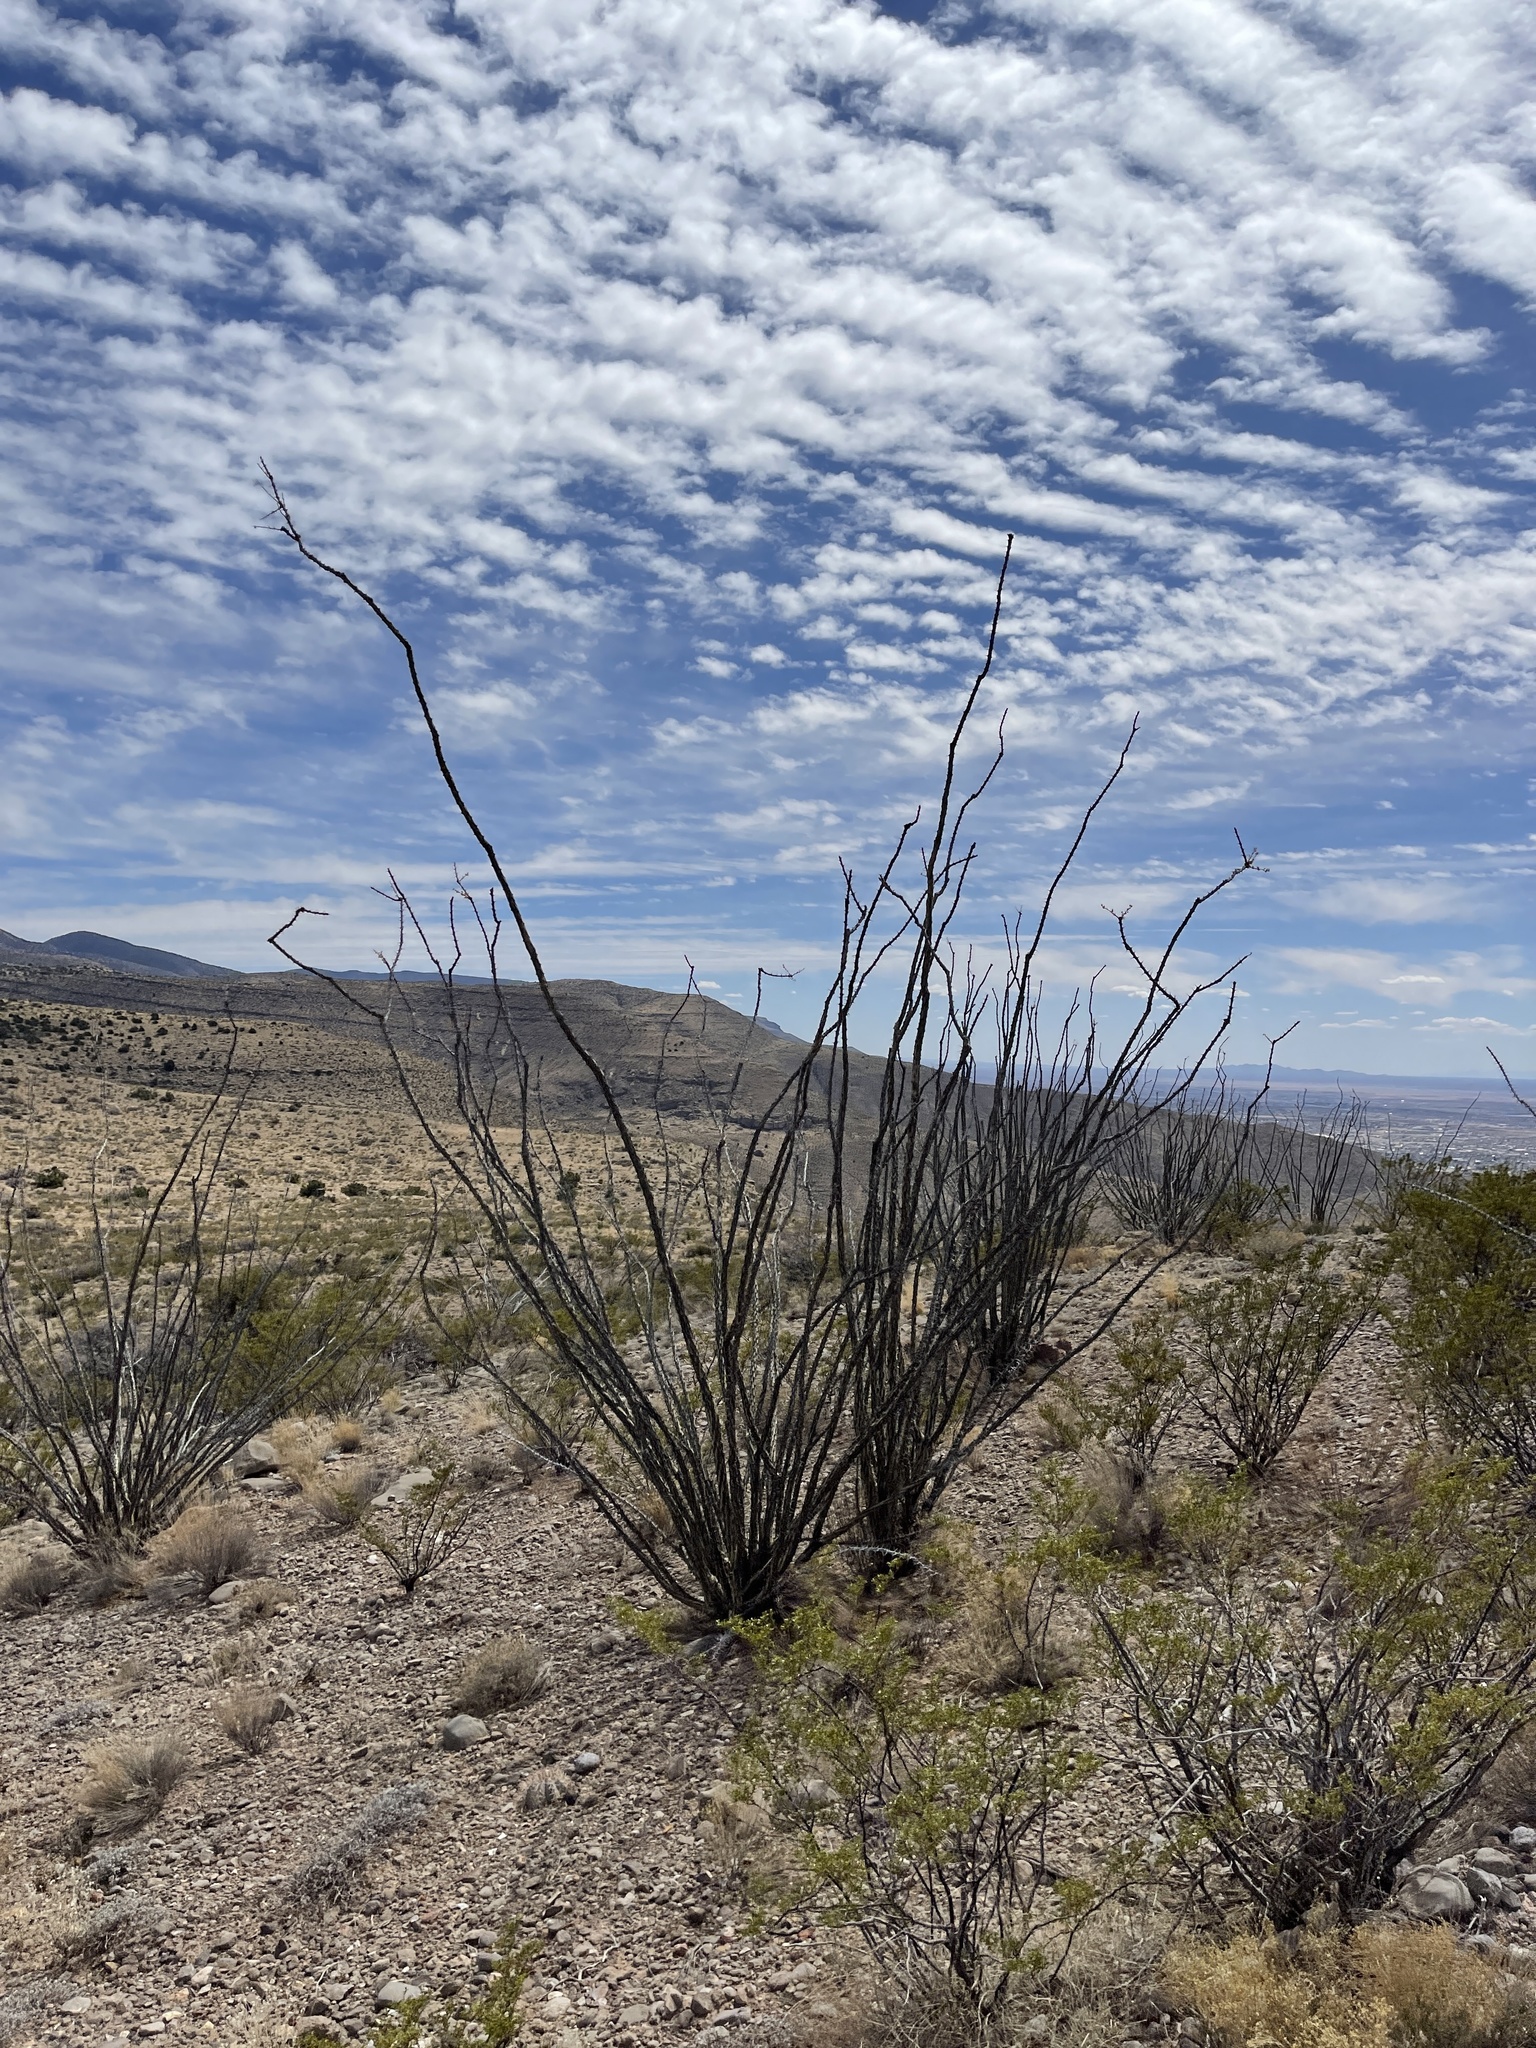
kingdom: Plantae
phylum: Tracheophyta
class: Magnoliopsida
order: Ericales
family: Fouquieriaceae
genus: Fouquieria
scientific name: Fouquieria splendens
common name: Vine-cactus
